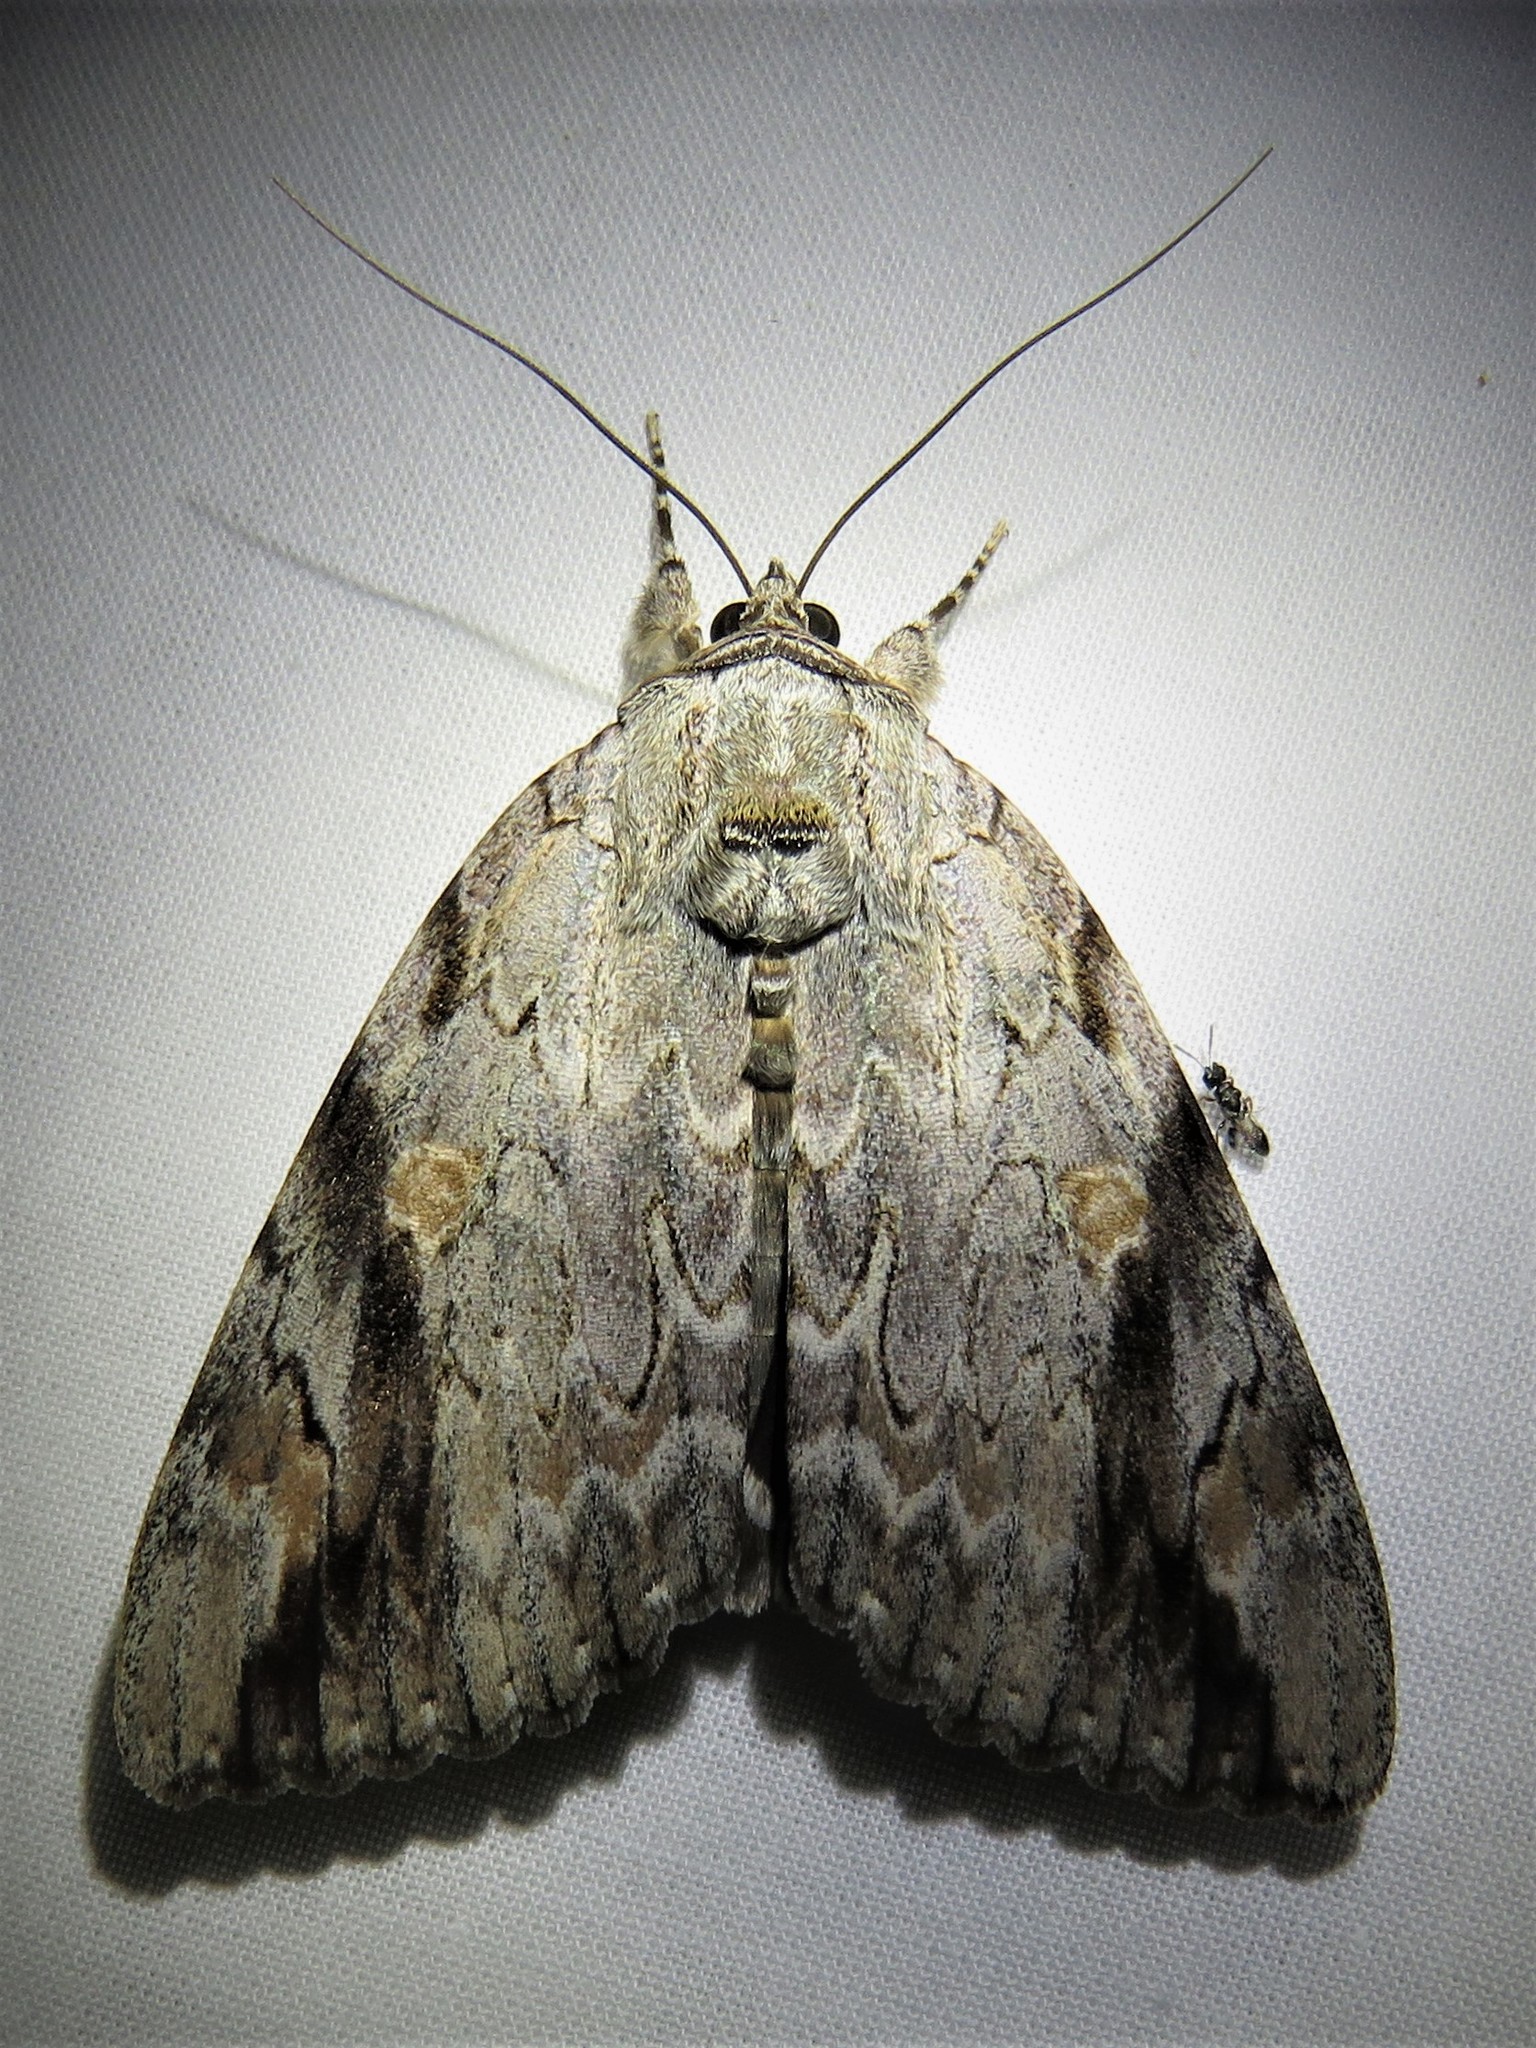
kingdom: Animalia
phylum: Arthropoda
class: Insecta
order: Lepidoptera
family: Erebidae
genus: Catocala
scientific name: Catocala maestosa
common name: Sad underwing
